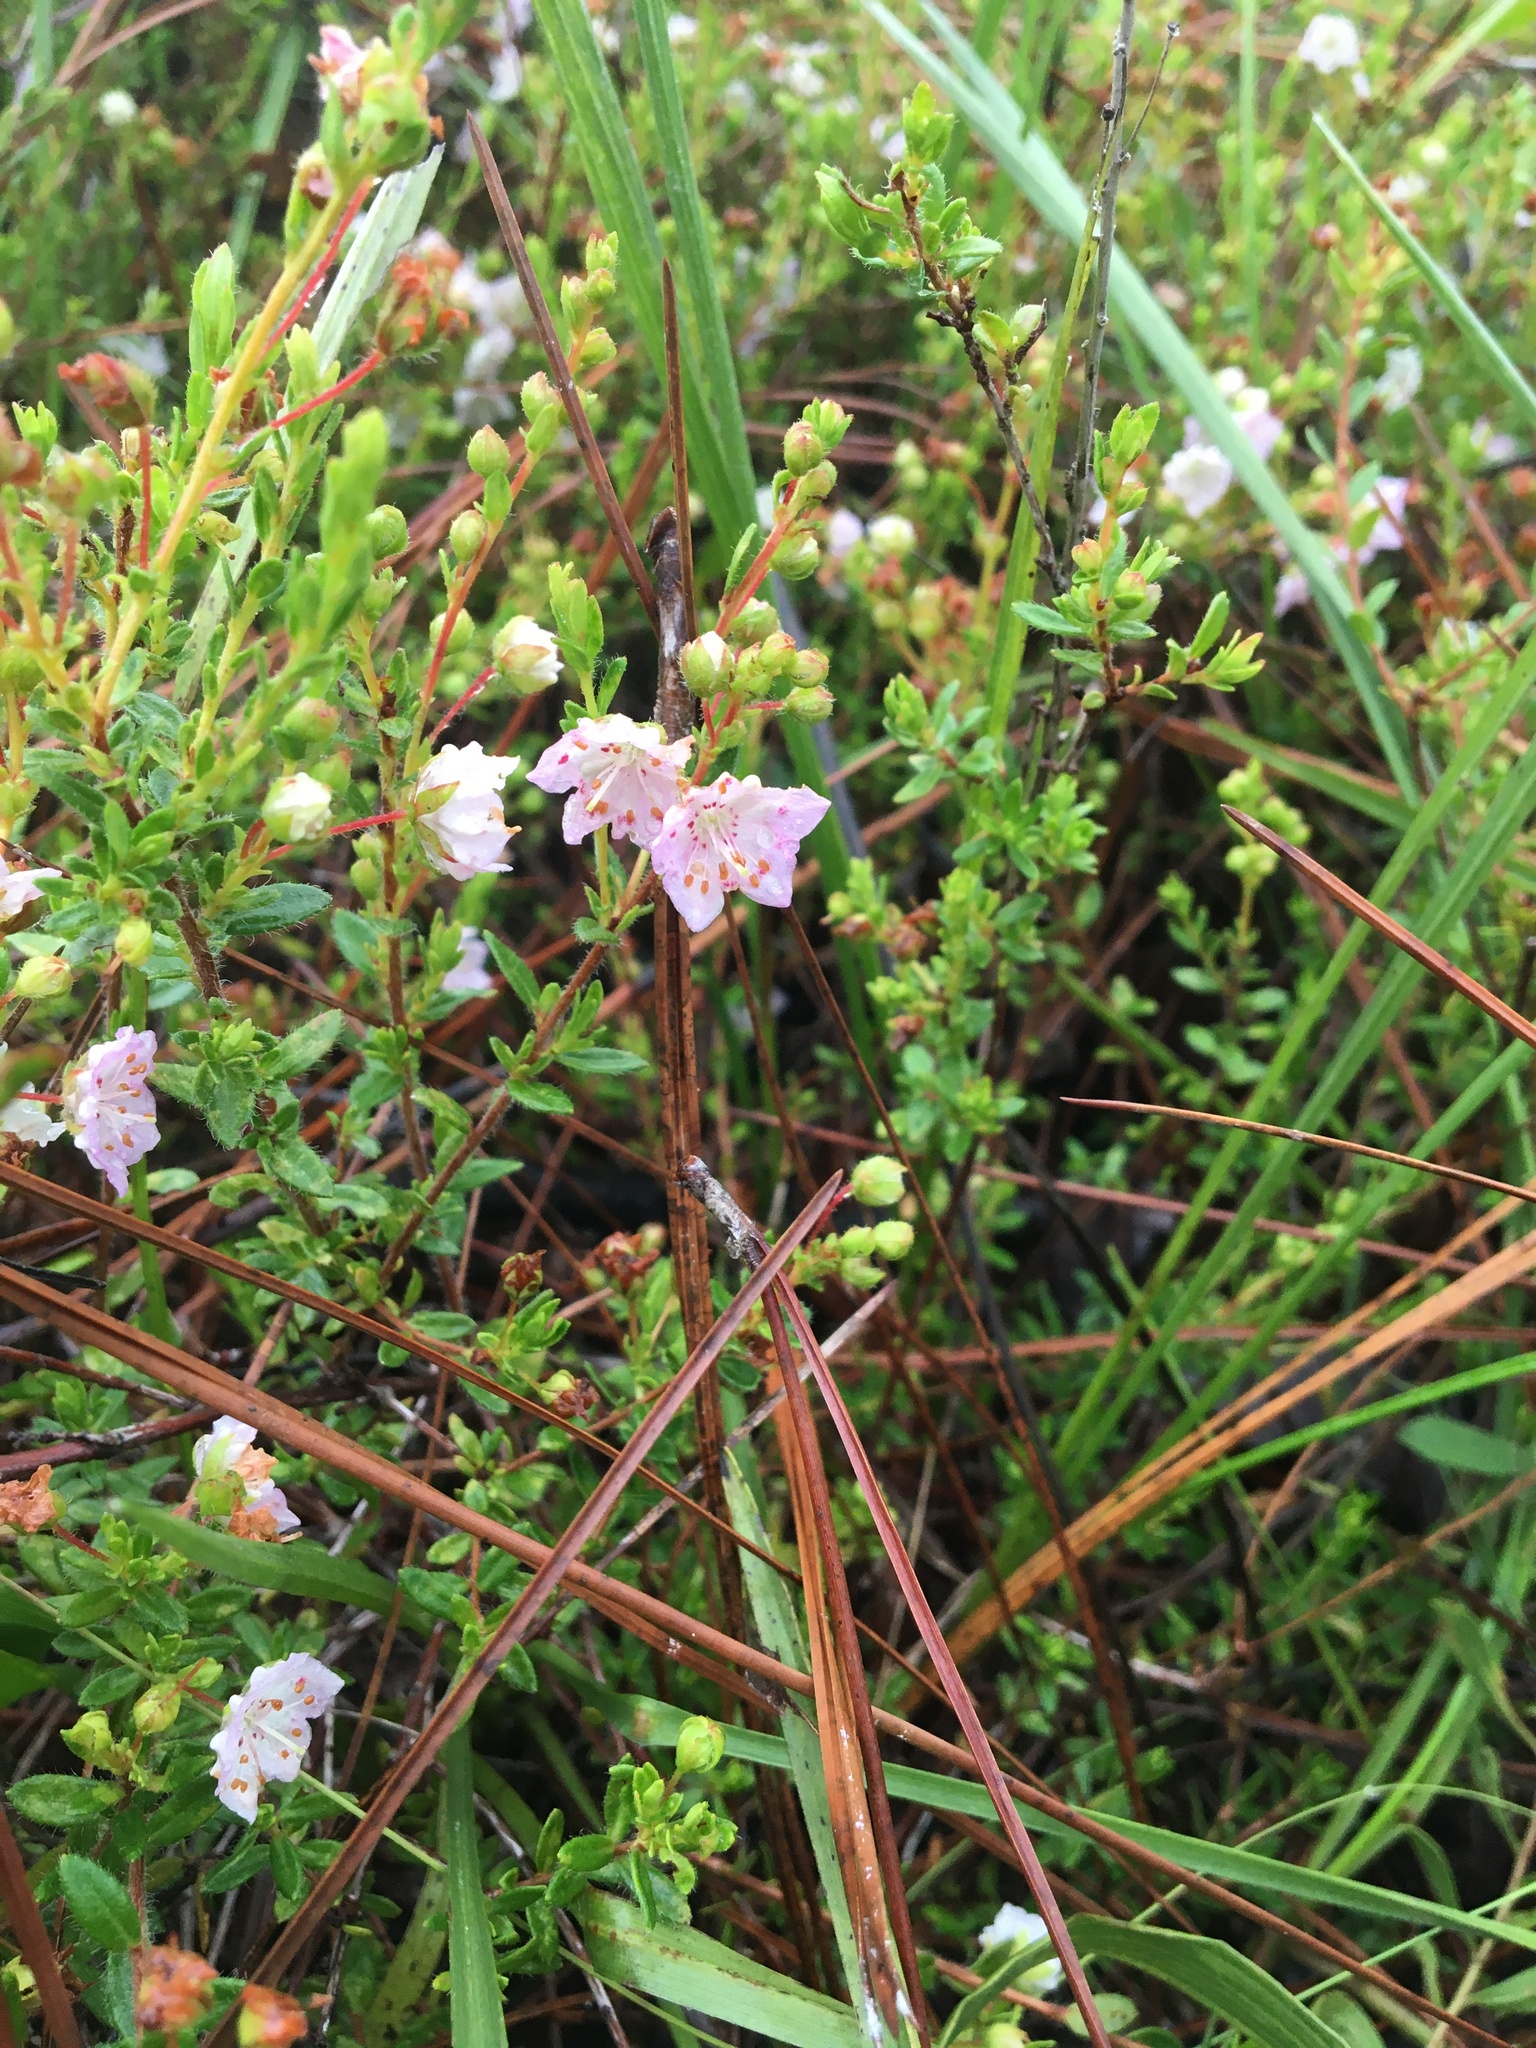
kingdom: Plantae
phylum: Tracheophyta
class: Magnoliopsida
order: Ericales
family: Ericaceae
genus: Kalmia
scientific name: Kalmia hirsuta
